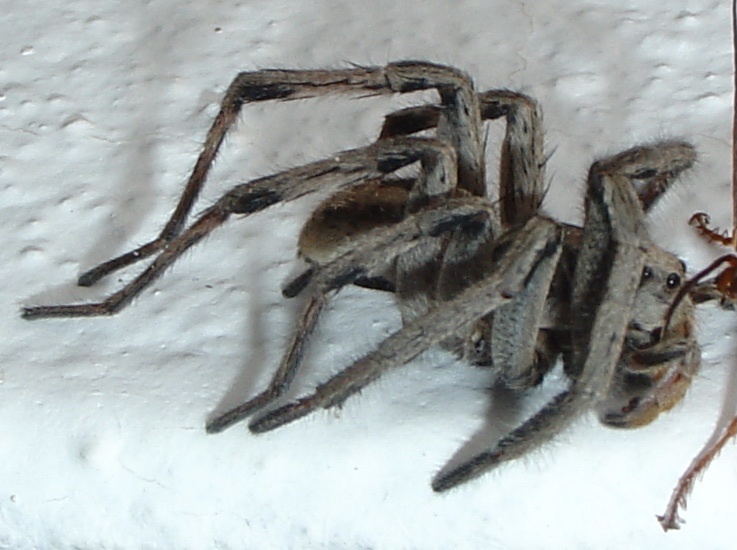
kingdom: Animalia
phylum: Arthropoda
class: Arachnida
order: Araneae
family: Lycosidae
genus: Lycosa
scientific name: Lycosa erythrognatha
